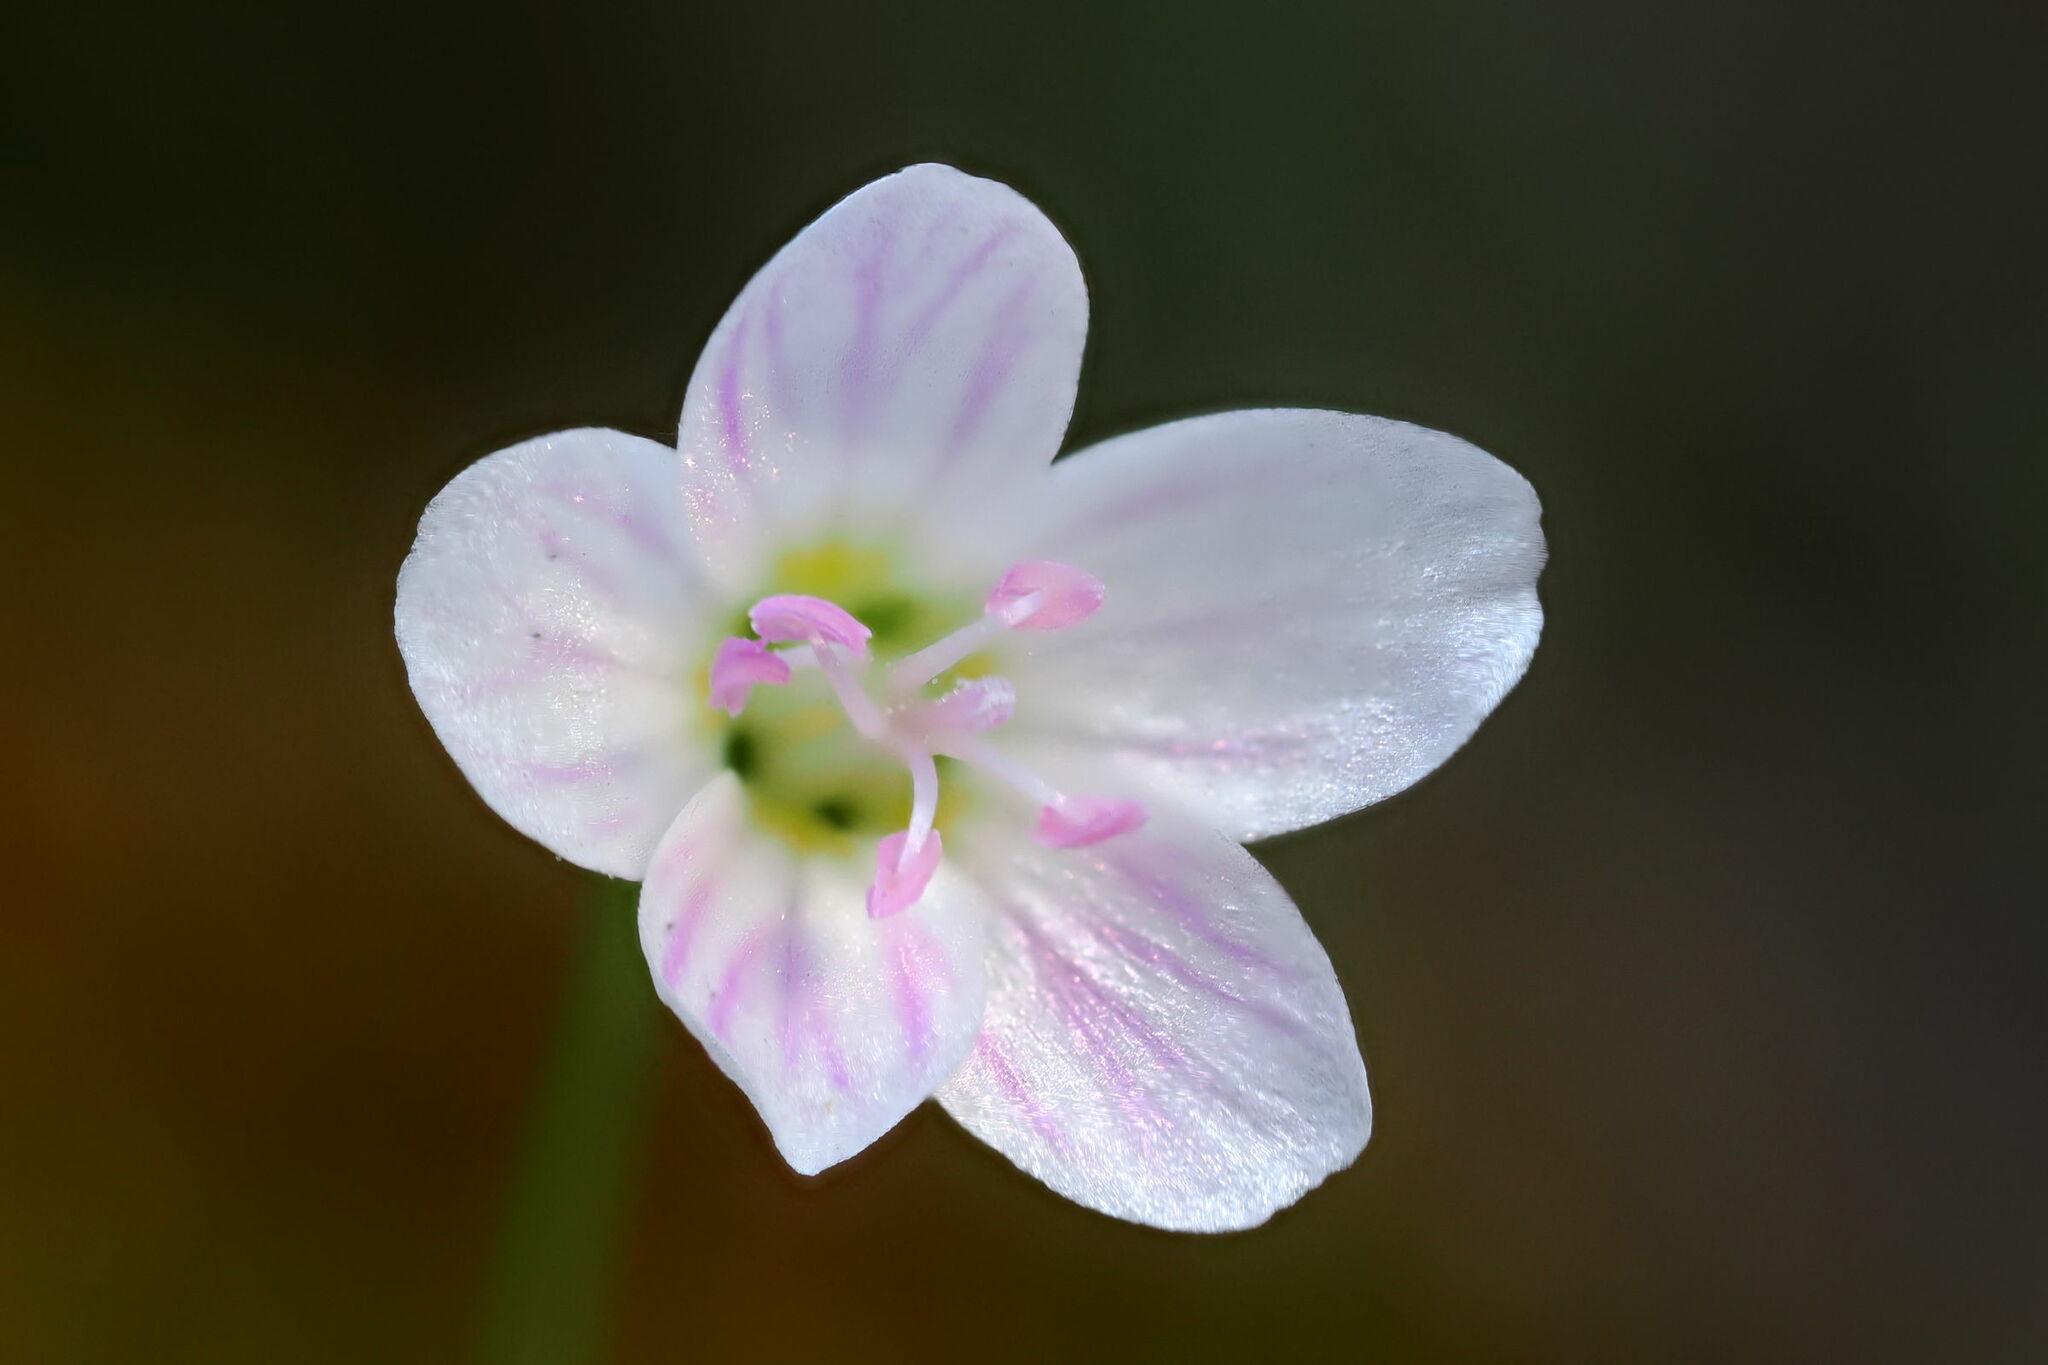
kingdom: Plantae
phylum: Tracheophyta
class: Magnoliopsida
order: Caryophyllales
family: Montiaceae
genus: Claytonia
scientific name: Claytonia virginica
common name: Virginia springbeauty
